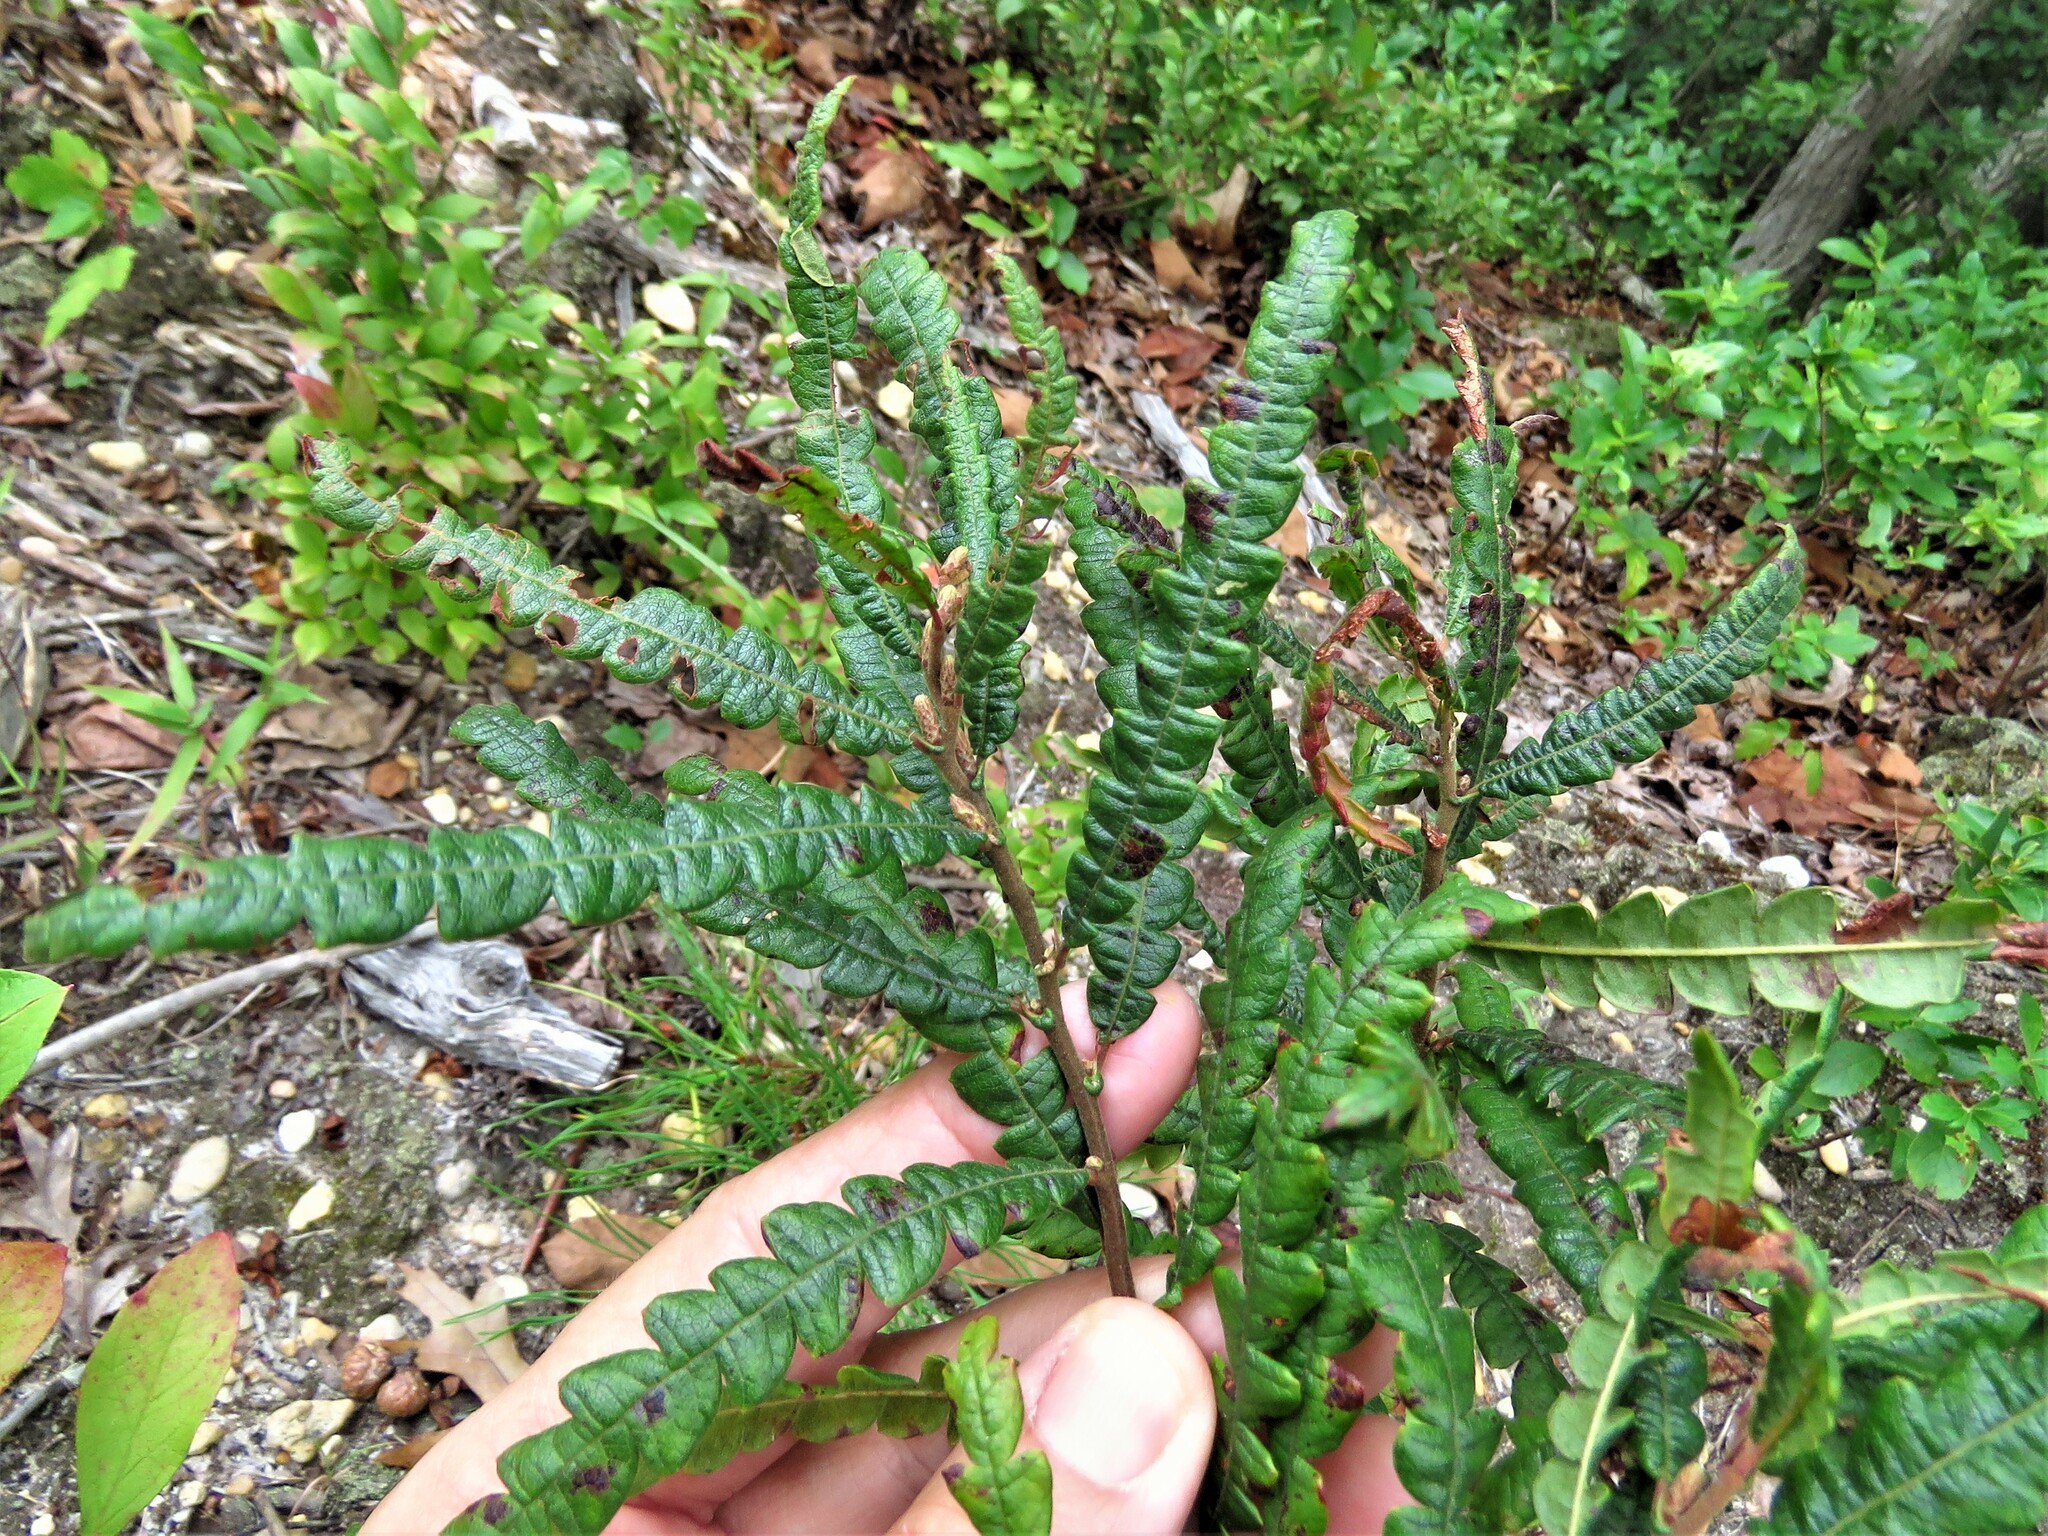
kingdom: Plantae
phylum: Tracheophyta
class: Magnoliopsida
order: Fagales
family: Myricaceae
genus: Comptonia
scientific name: Comptonia peregrina
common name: Sweet-fern
